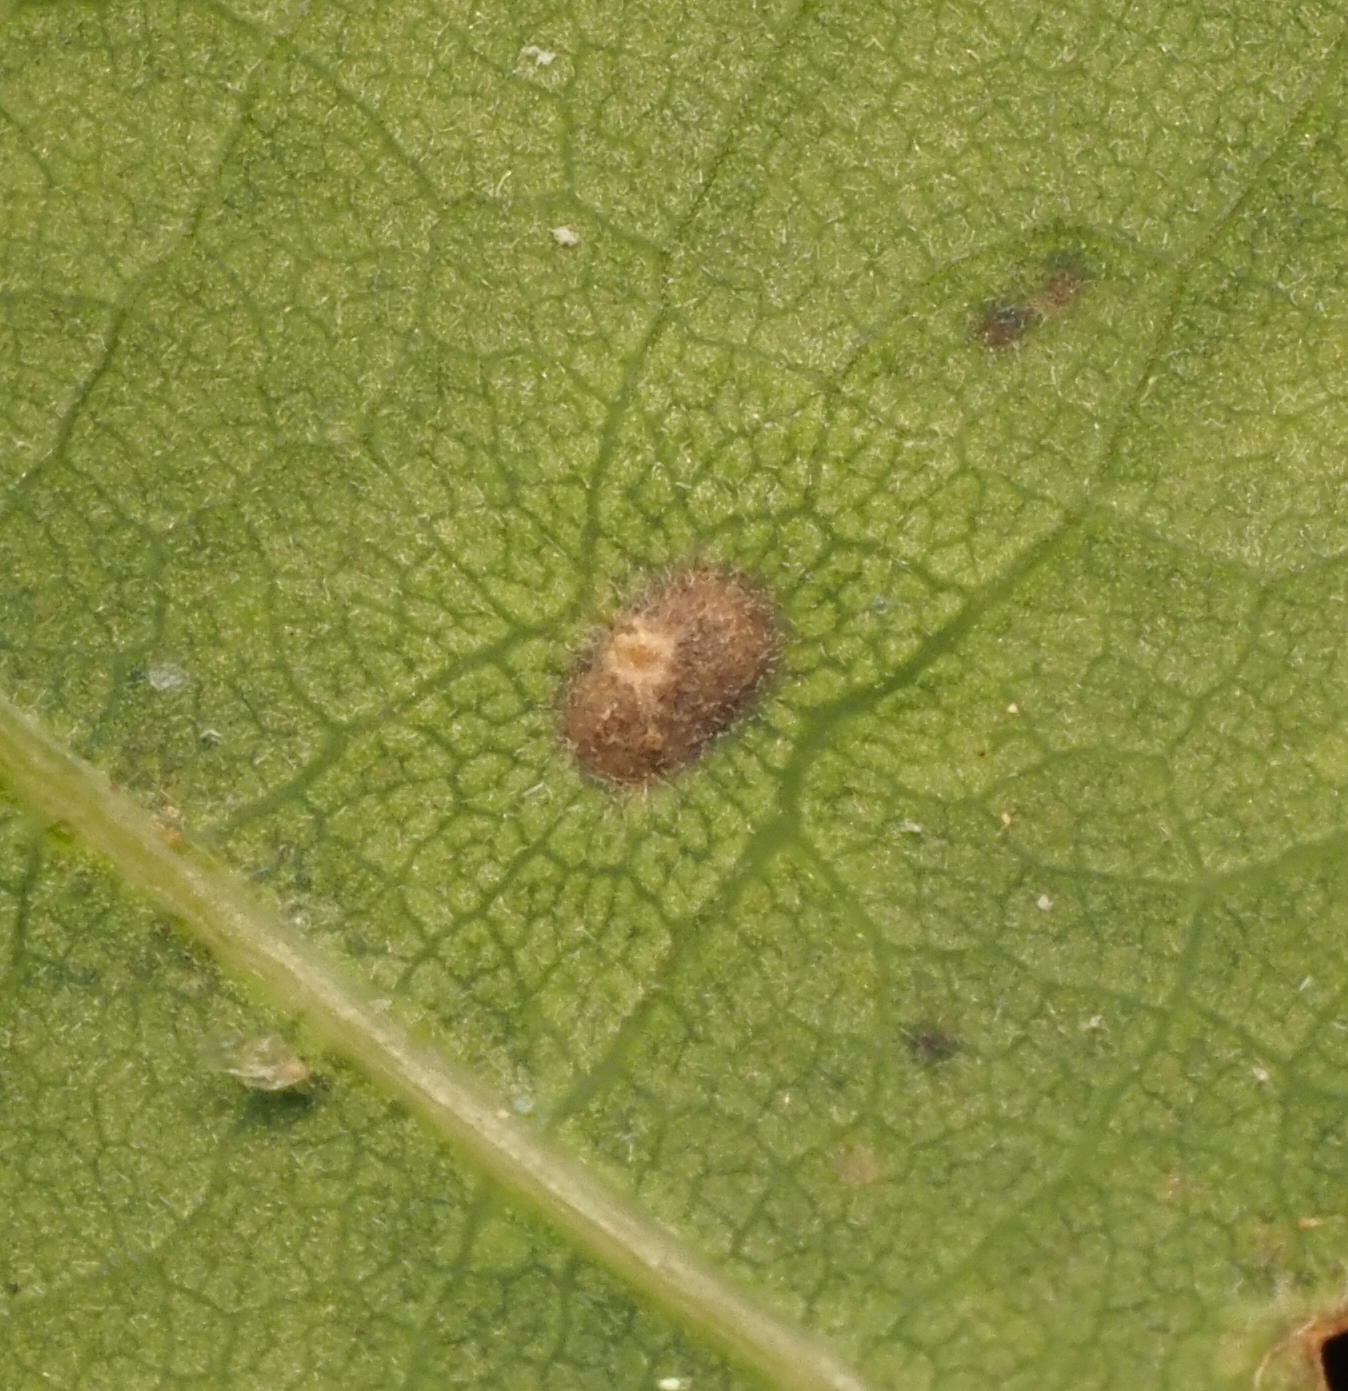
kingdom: Animalia
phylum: Arthropoda
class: Insecta
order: Hymenoptera
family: Cynipidae
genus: Neuroterus
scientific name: Neuroterus quercusverrucarum
